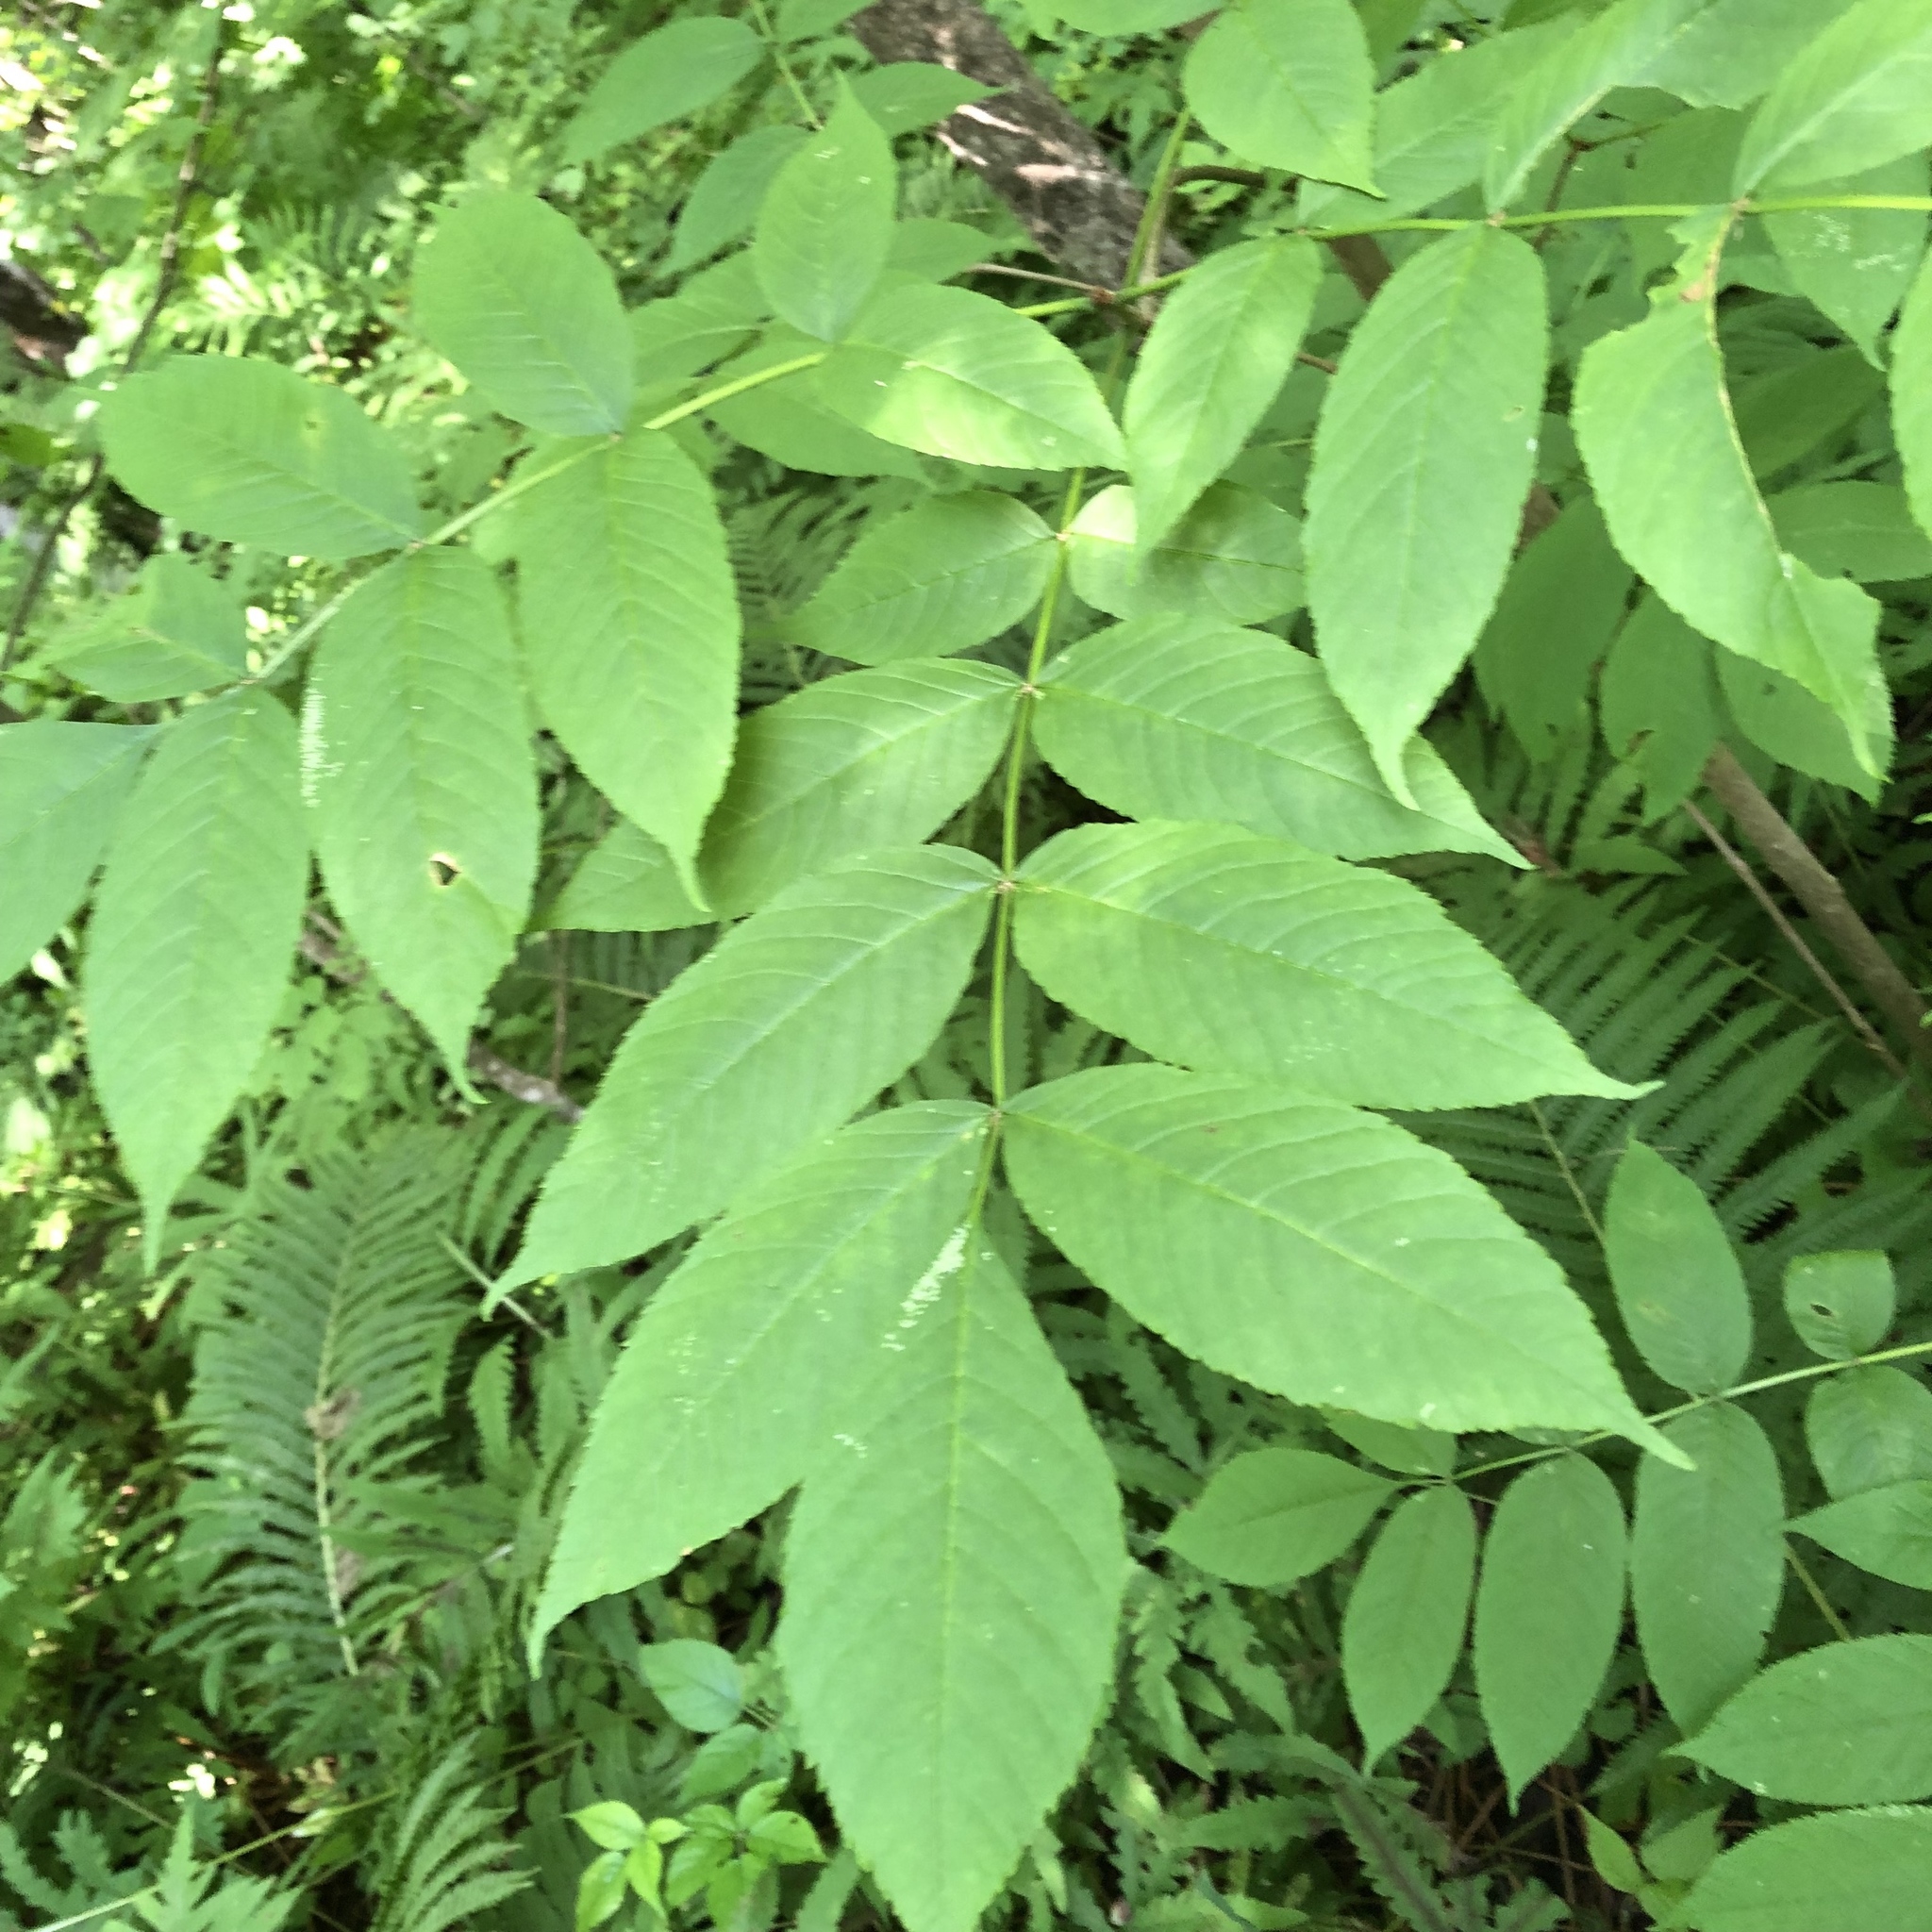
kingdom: Plantae
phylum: Tracheophyta
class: Magnoliopsida
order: Lamiales
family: Oleaceae
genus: Fraxinus
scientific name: Fraxinus nigra
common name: Black ash
